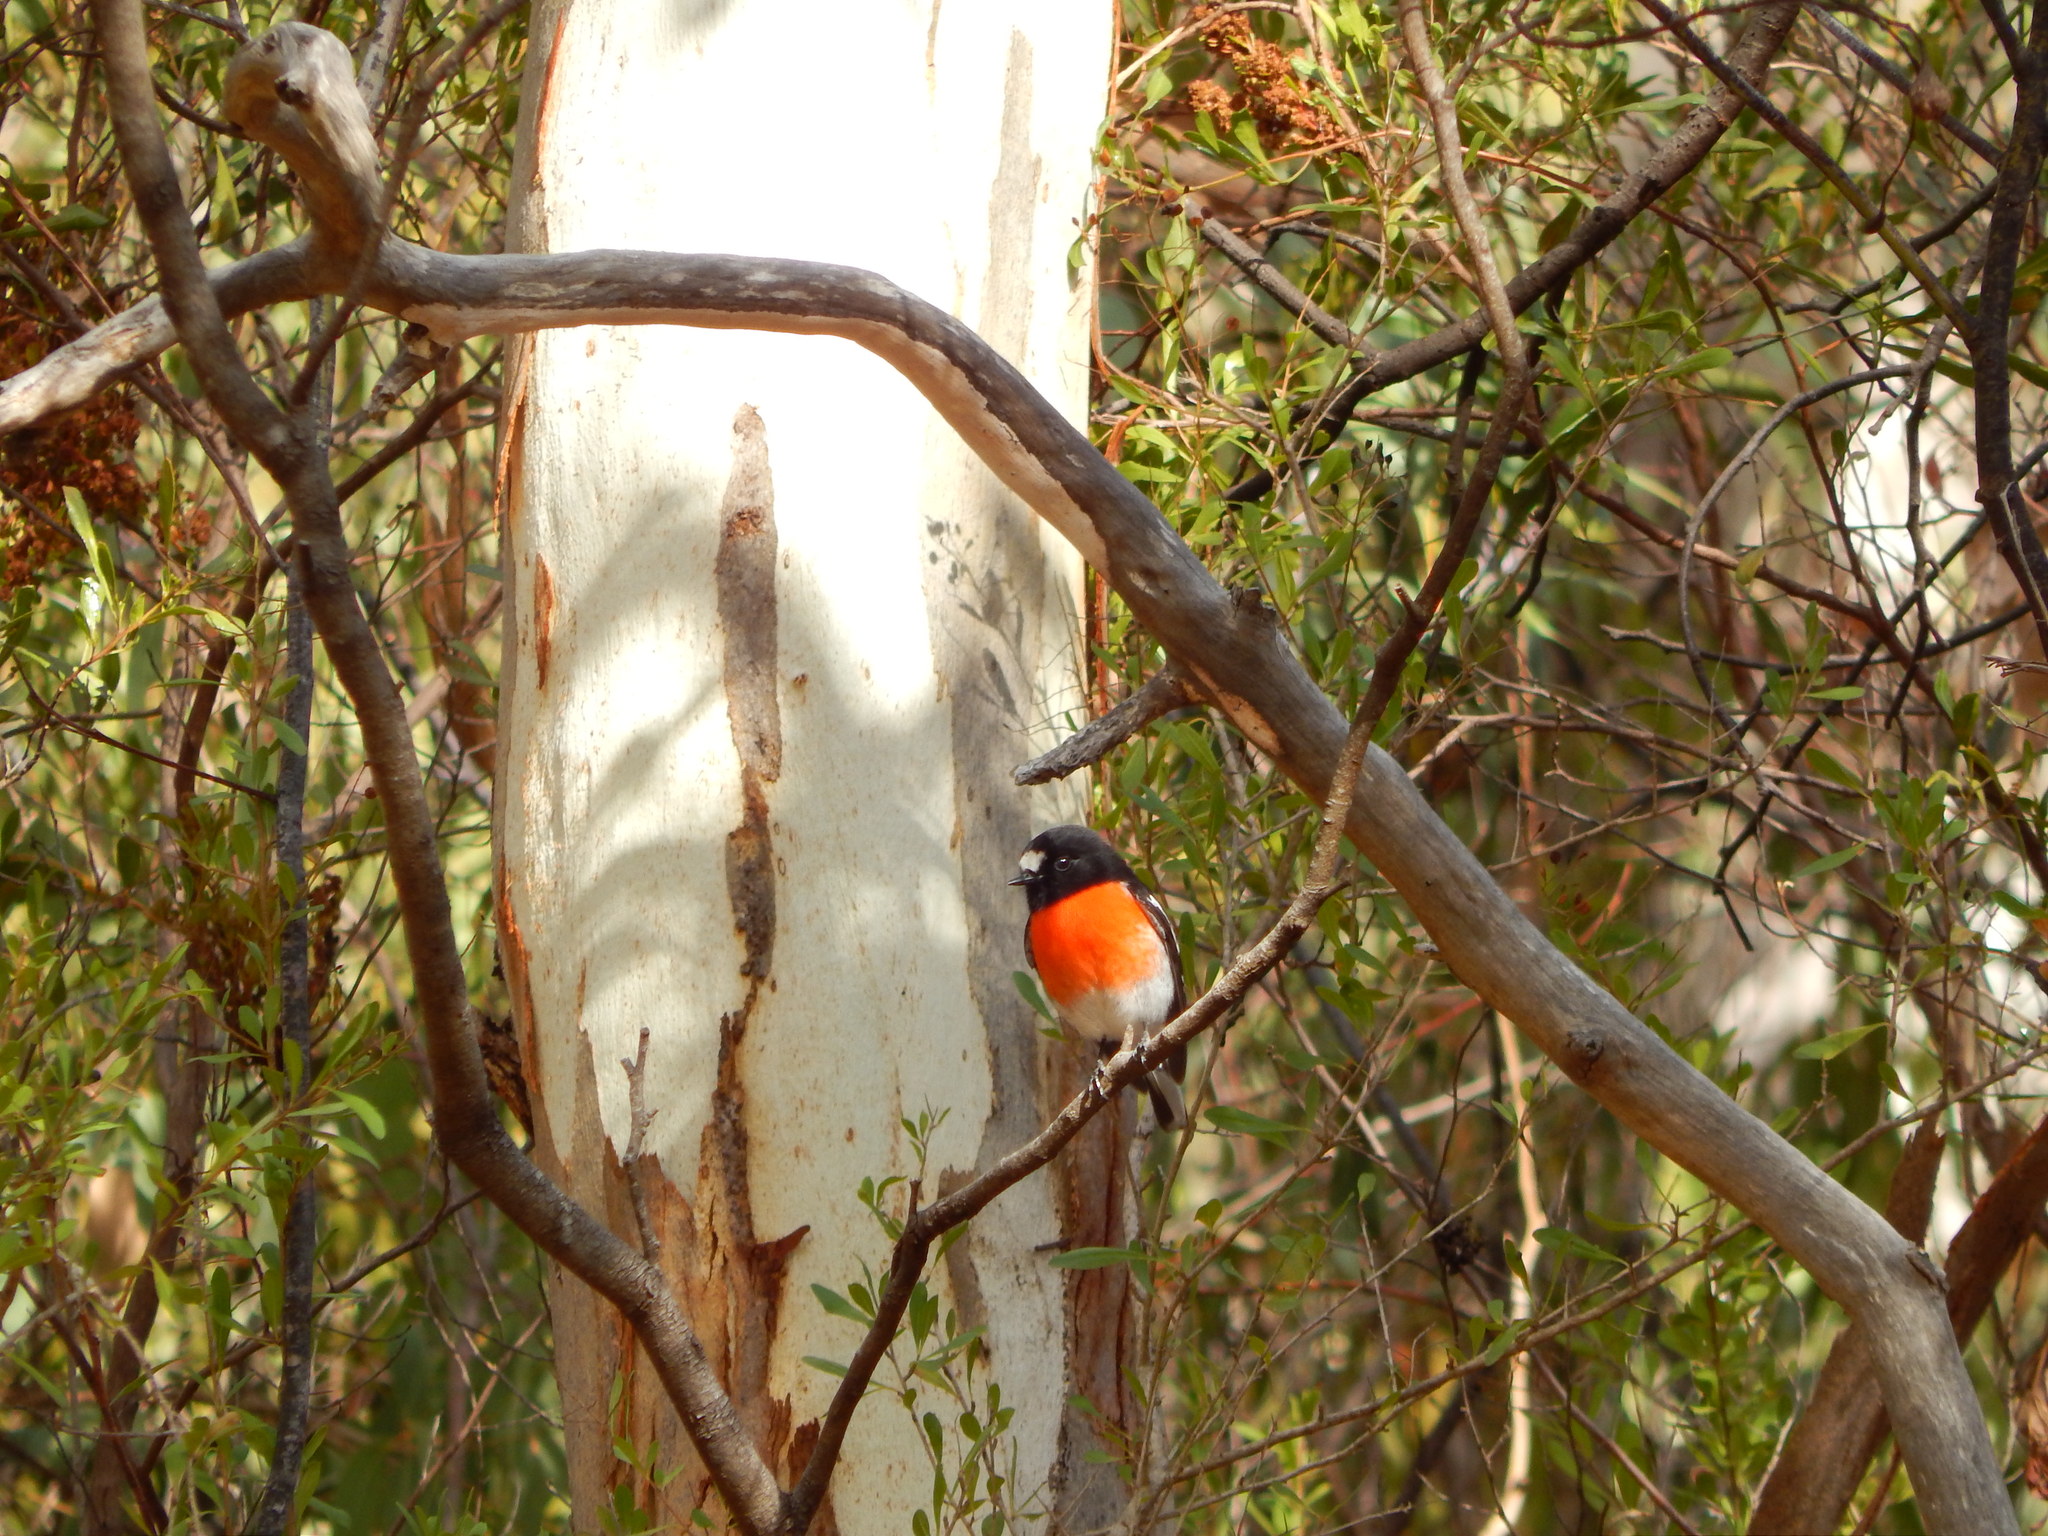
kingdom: Animalia
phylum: Chordata
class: Aves
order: Passeriformes
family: Petroicidae
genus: Petroica
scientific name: Petroica boodang
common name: Scarlet robin
